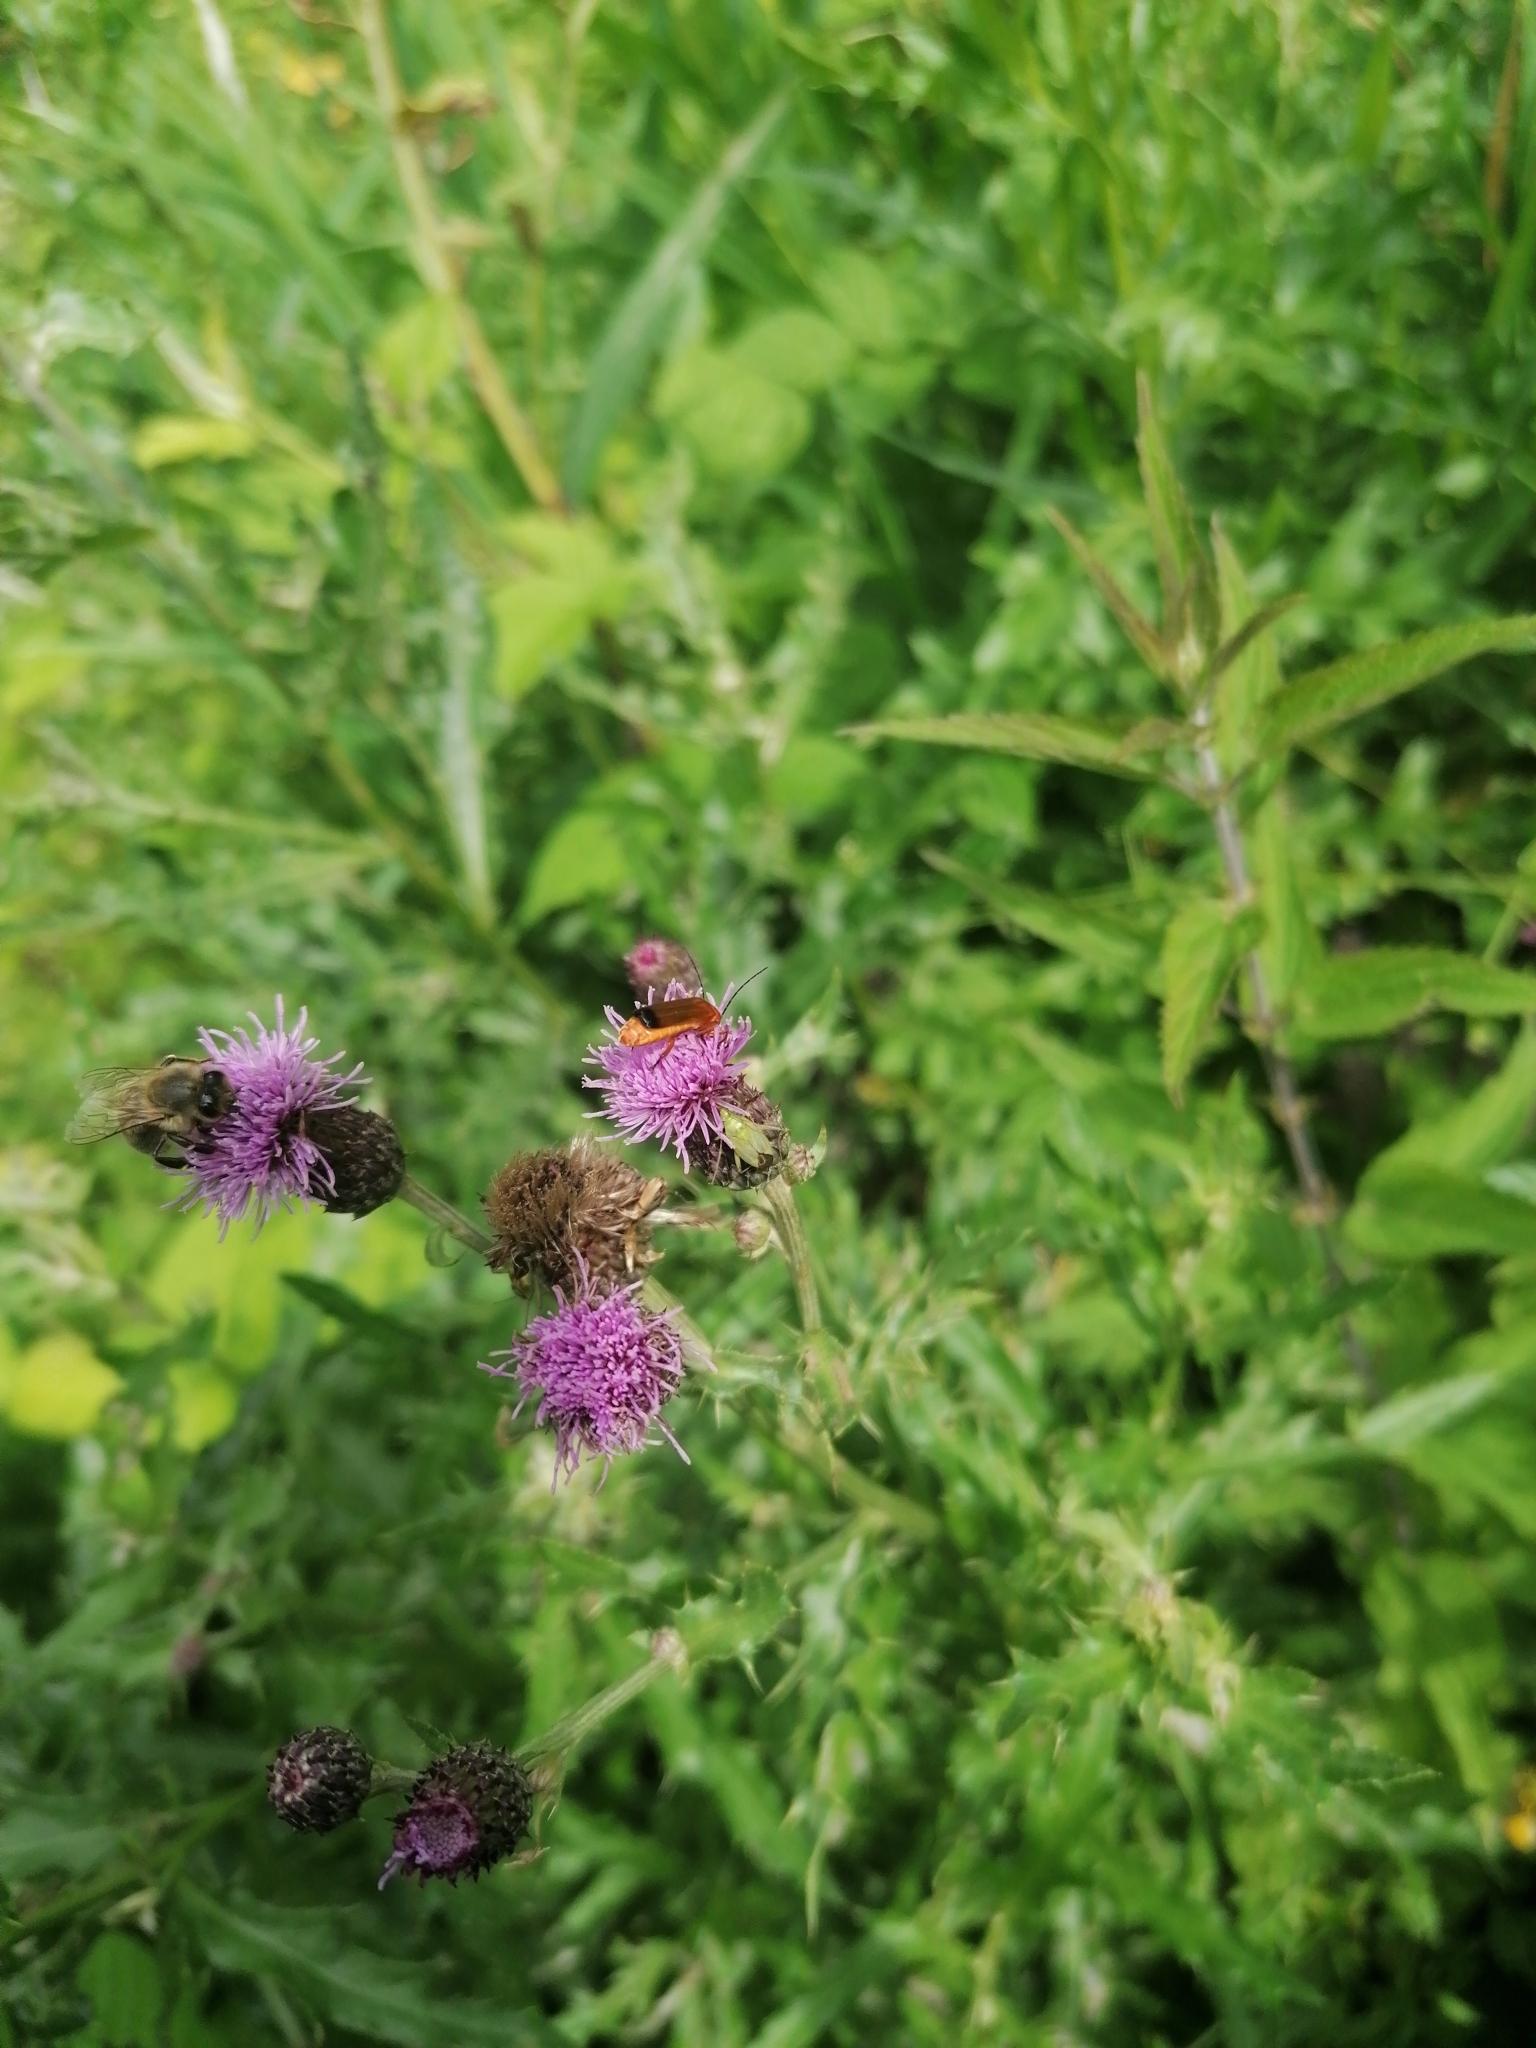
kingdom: Plantae
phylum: Tracheophyta
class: Magnoliopsida
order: Asterales
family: Asteraceae
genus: Cirsium
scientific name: Cirsium arvense
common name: Creeping thistle
